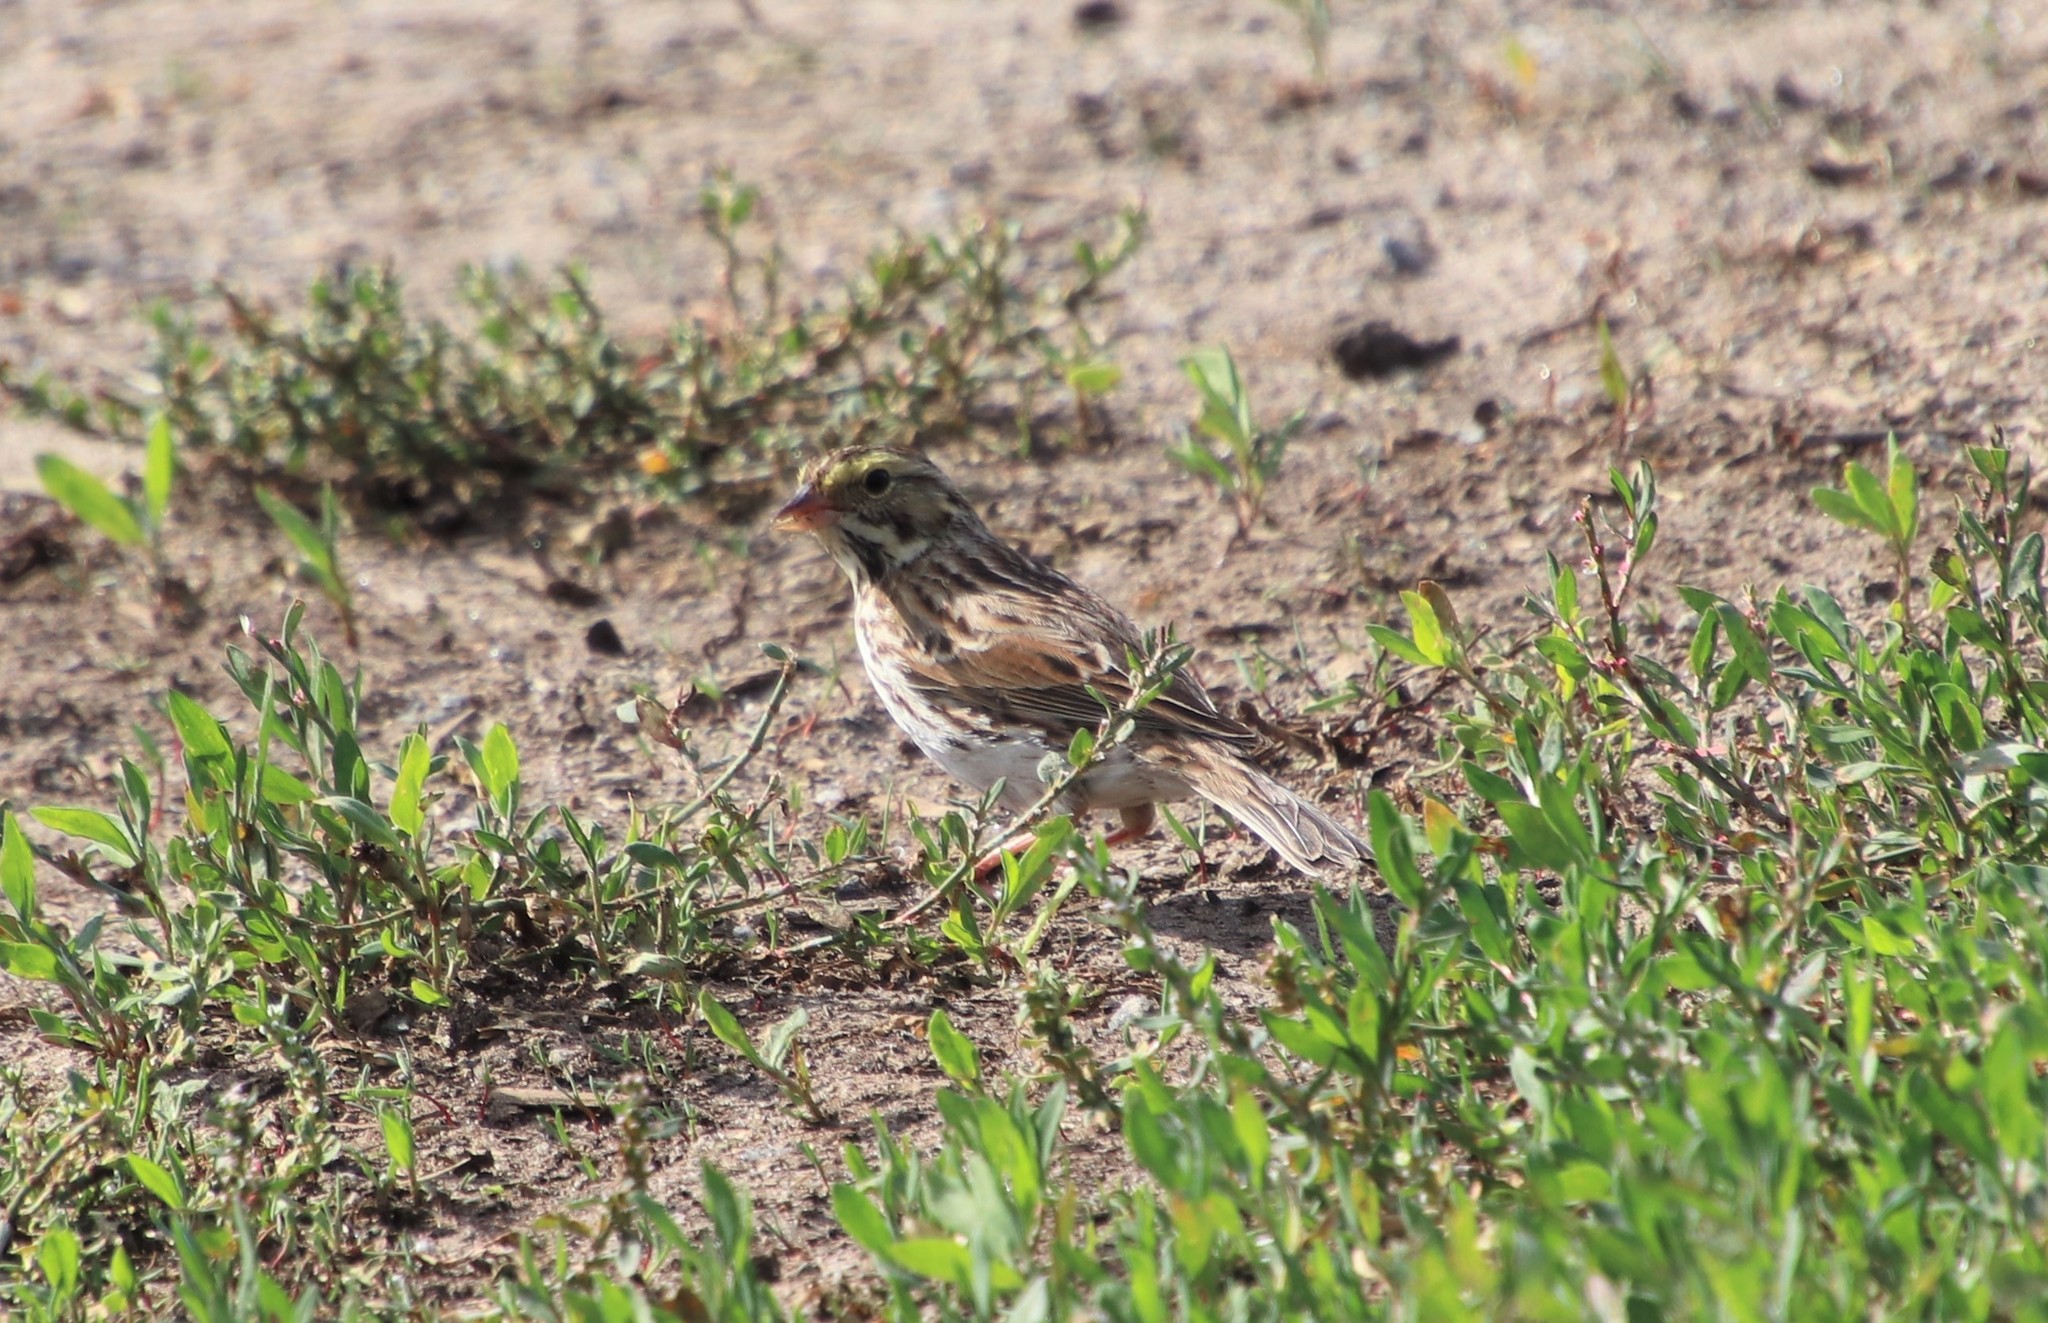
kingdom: Animalia
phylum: Chordata
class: Aves
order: Passeriformes
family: Passerellidae
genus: Passerculus
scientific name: Passerculus sandwichensis
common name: Savannah sparrow
